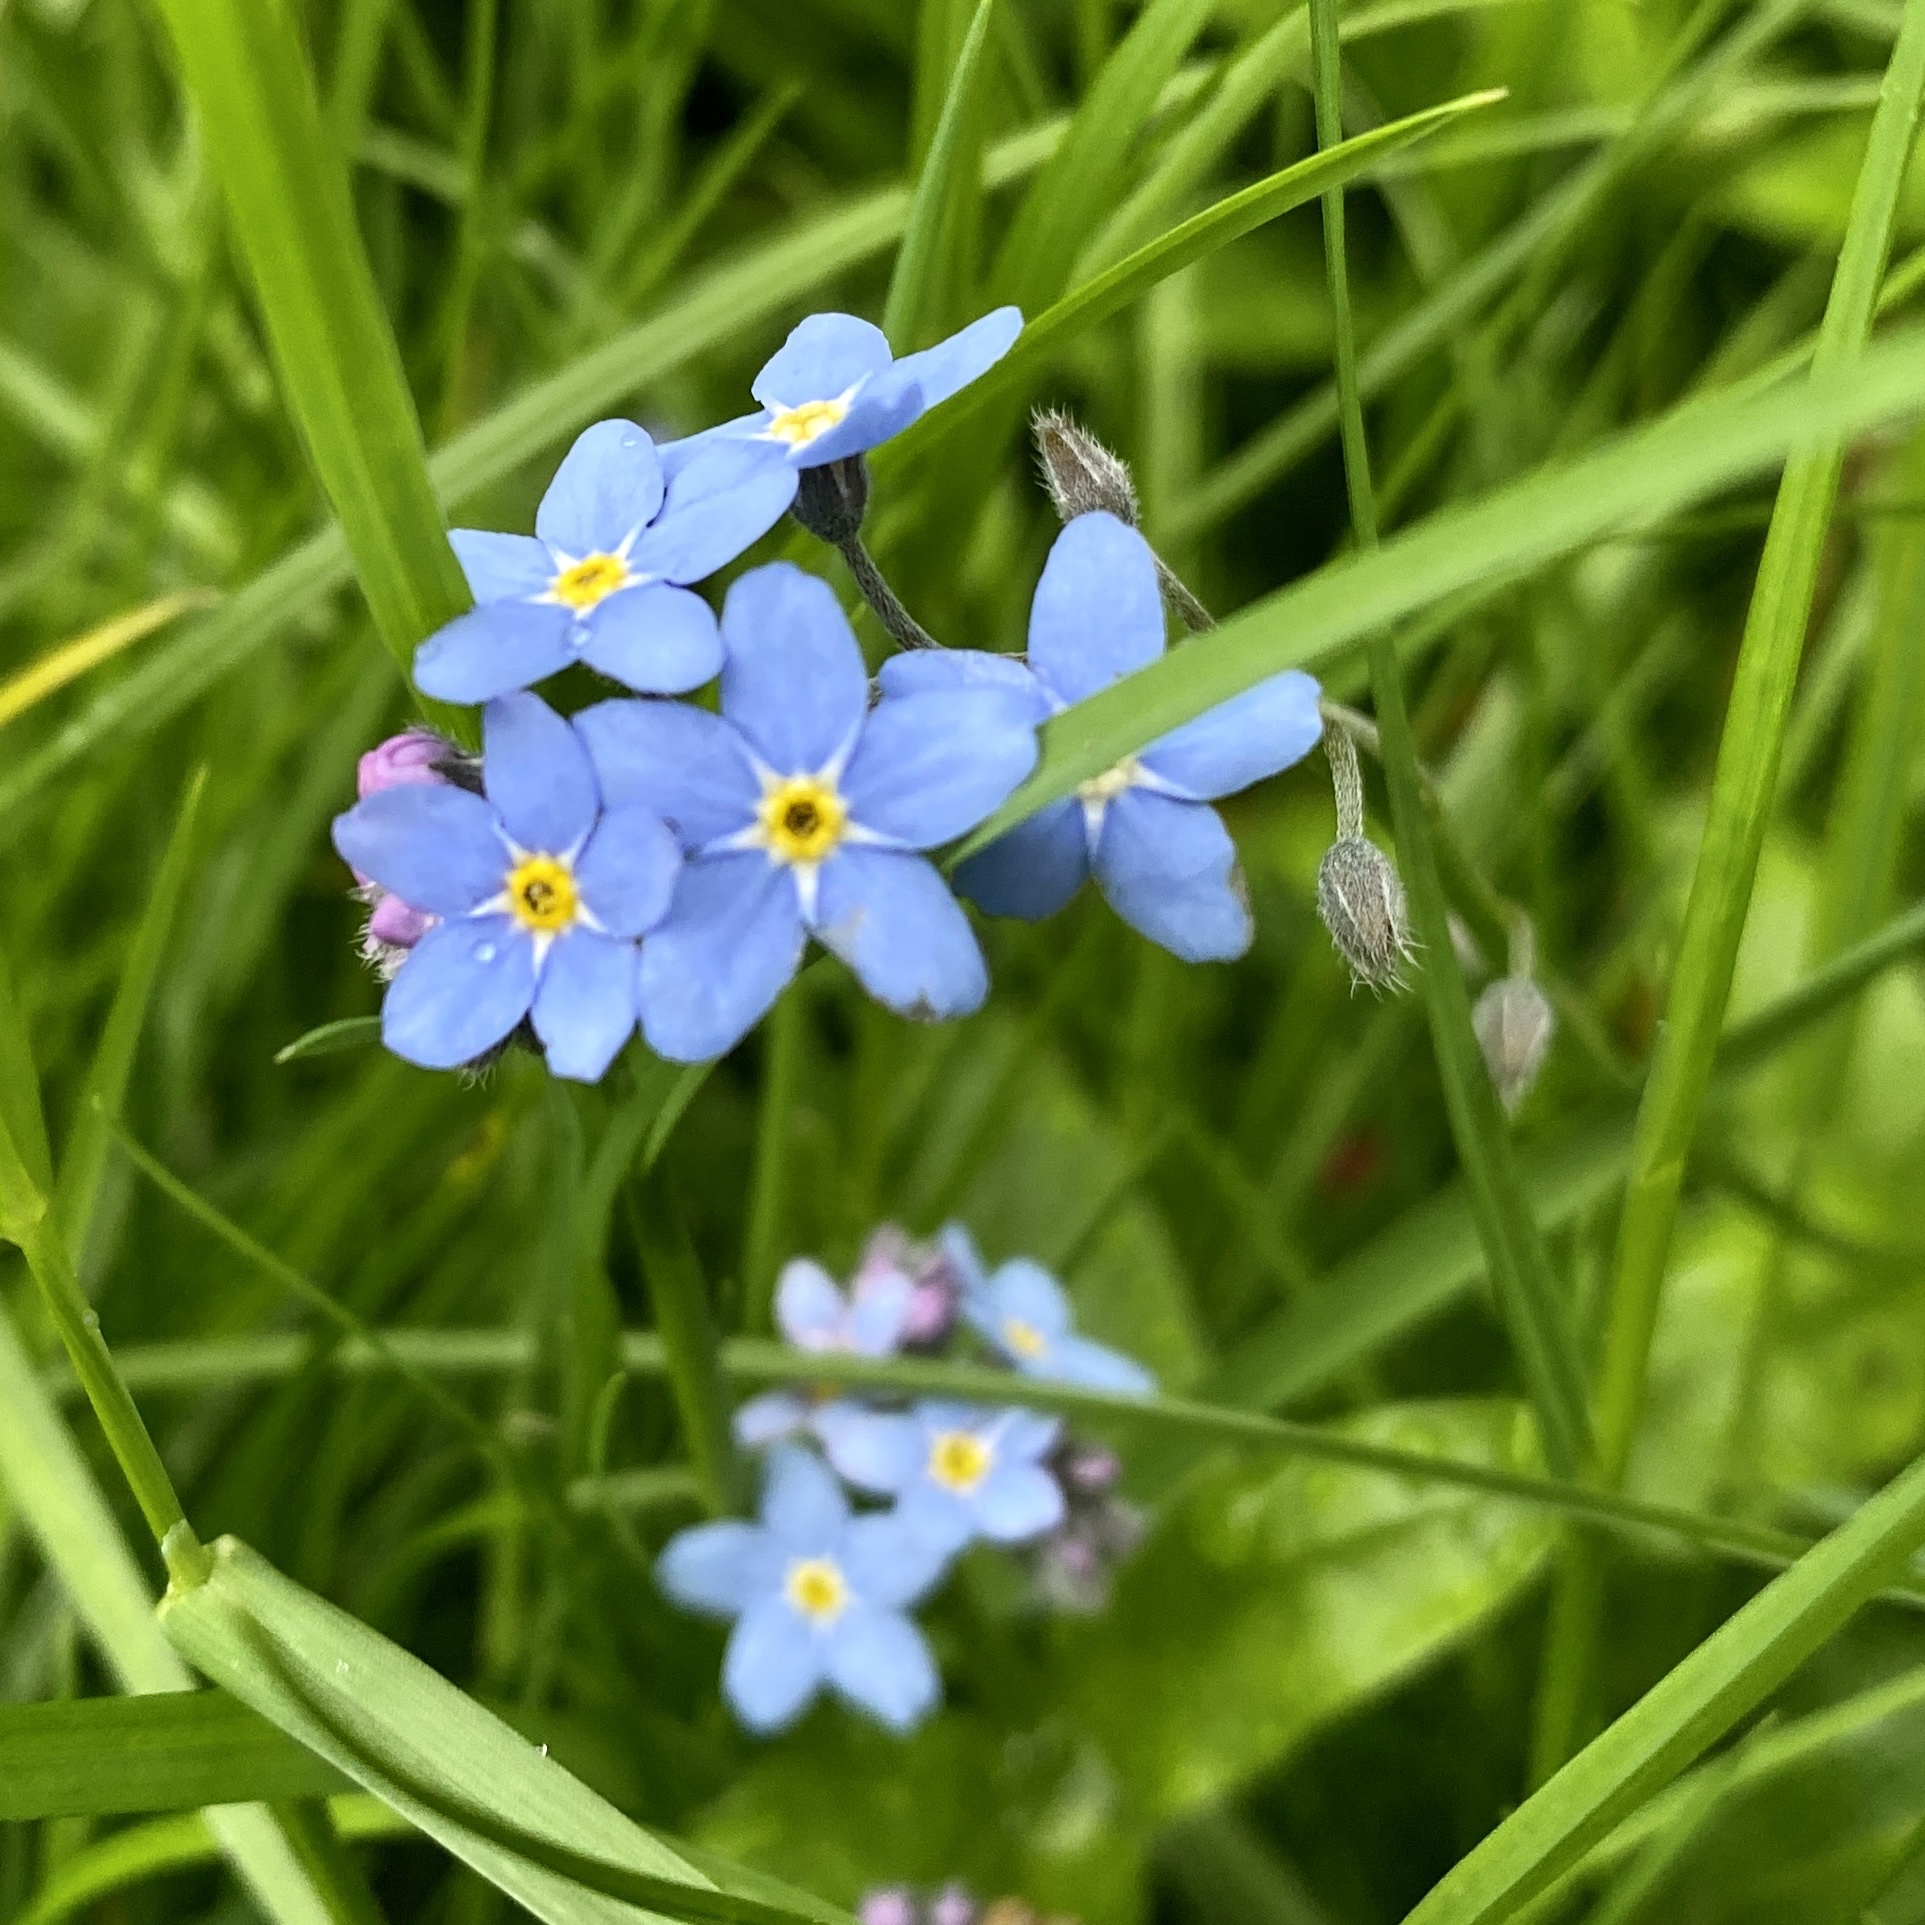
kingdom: Plantae
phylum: Tracheophyta
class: Magnoliopsida
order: Boraginales
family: Boraginaceae
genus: Myosotis
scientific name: Myosotis sylvatica
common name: Wood forget-me-not
